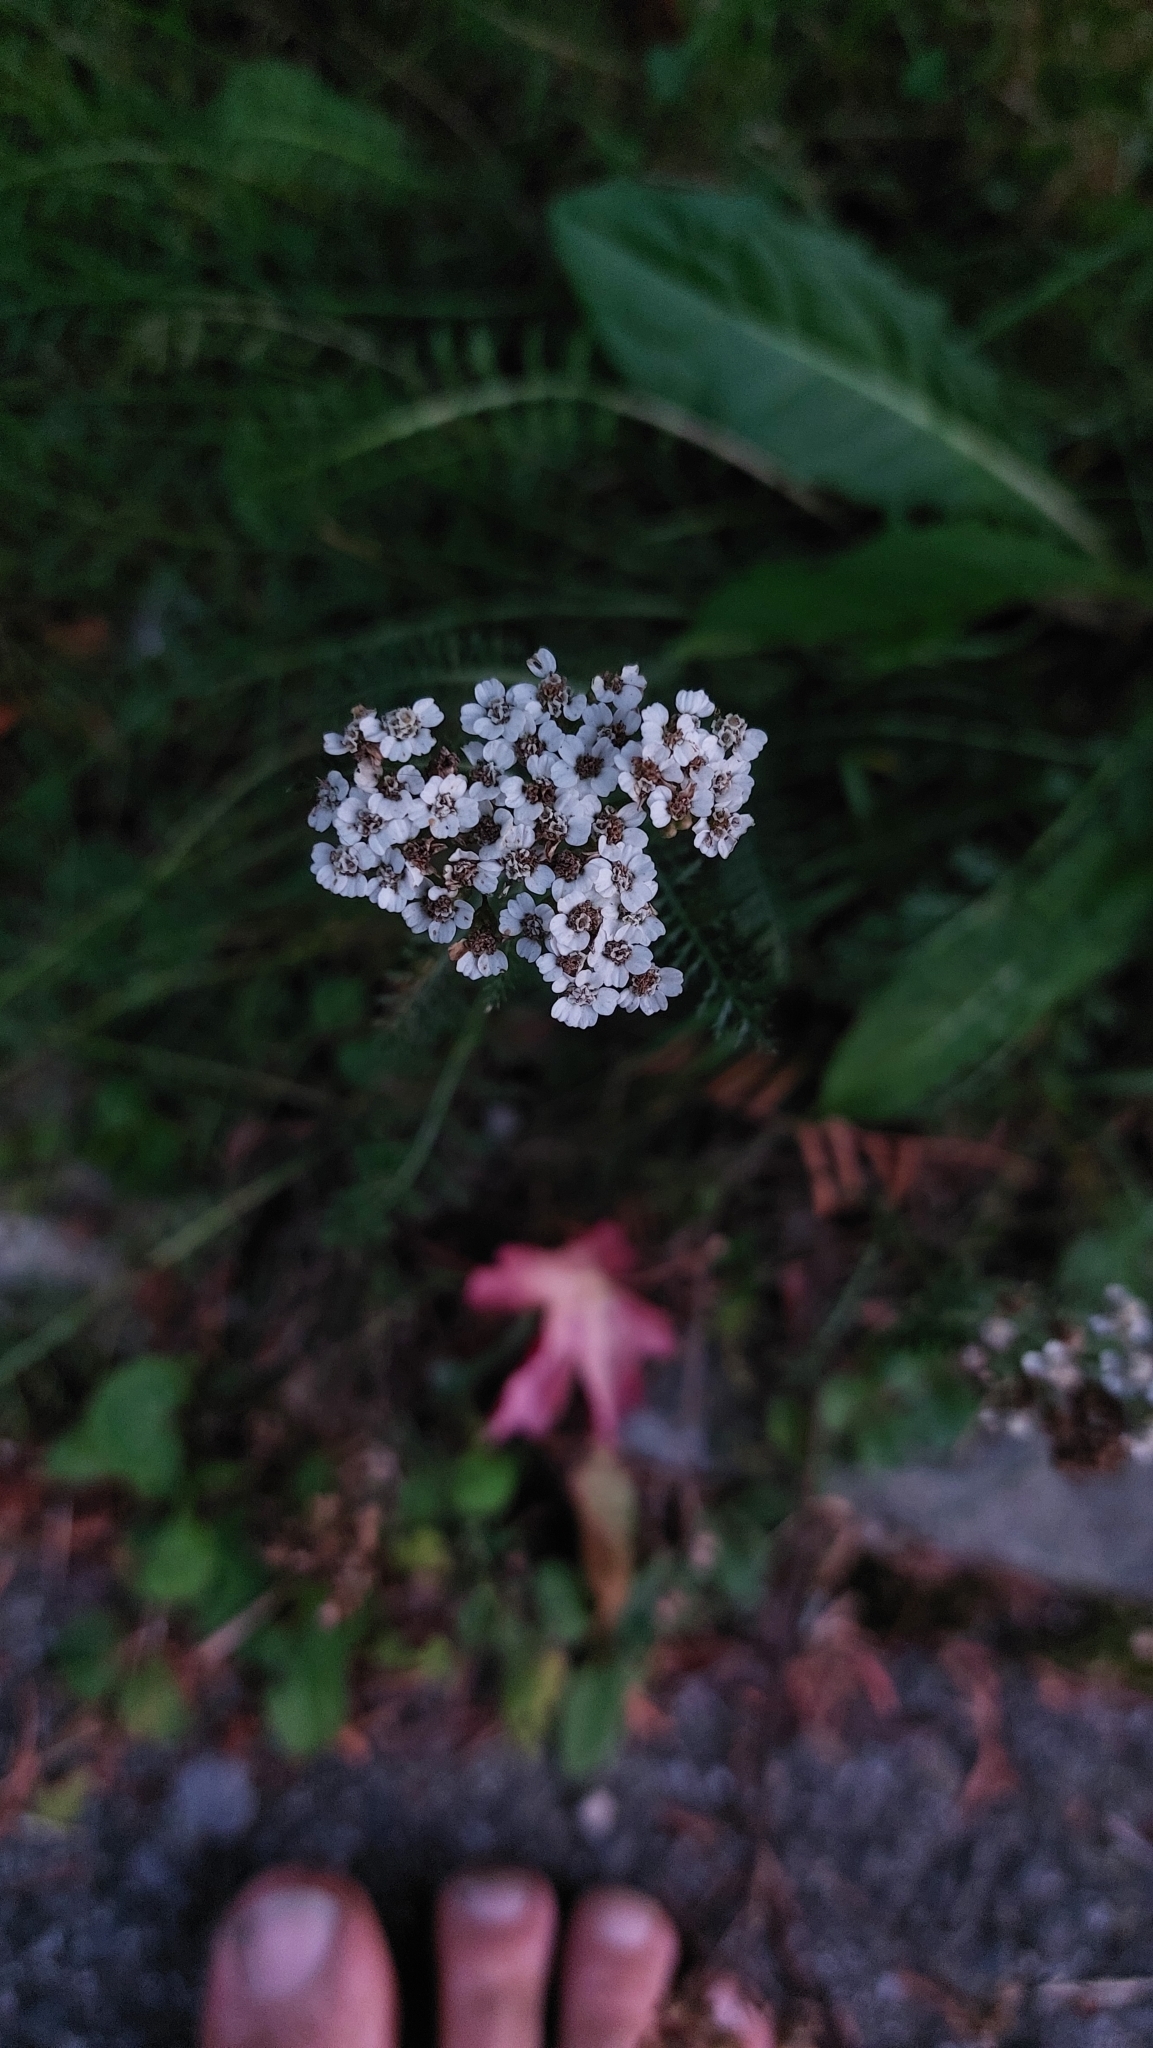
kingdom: Plantae
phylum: Tracheophyta
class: Magnoliopsida
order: Asterales
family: Asteraceae
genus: Achillea
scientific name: Achillea millefolium
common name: Yarrow
